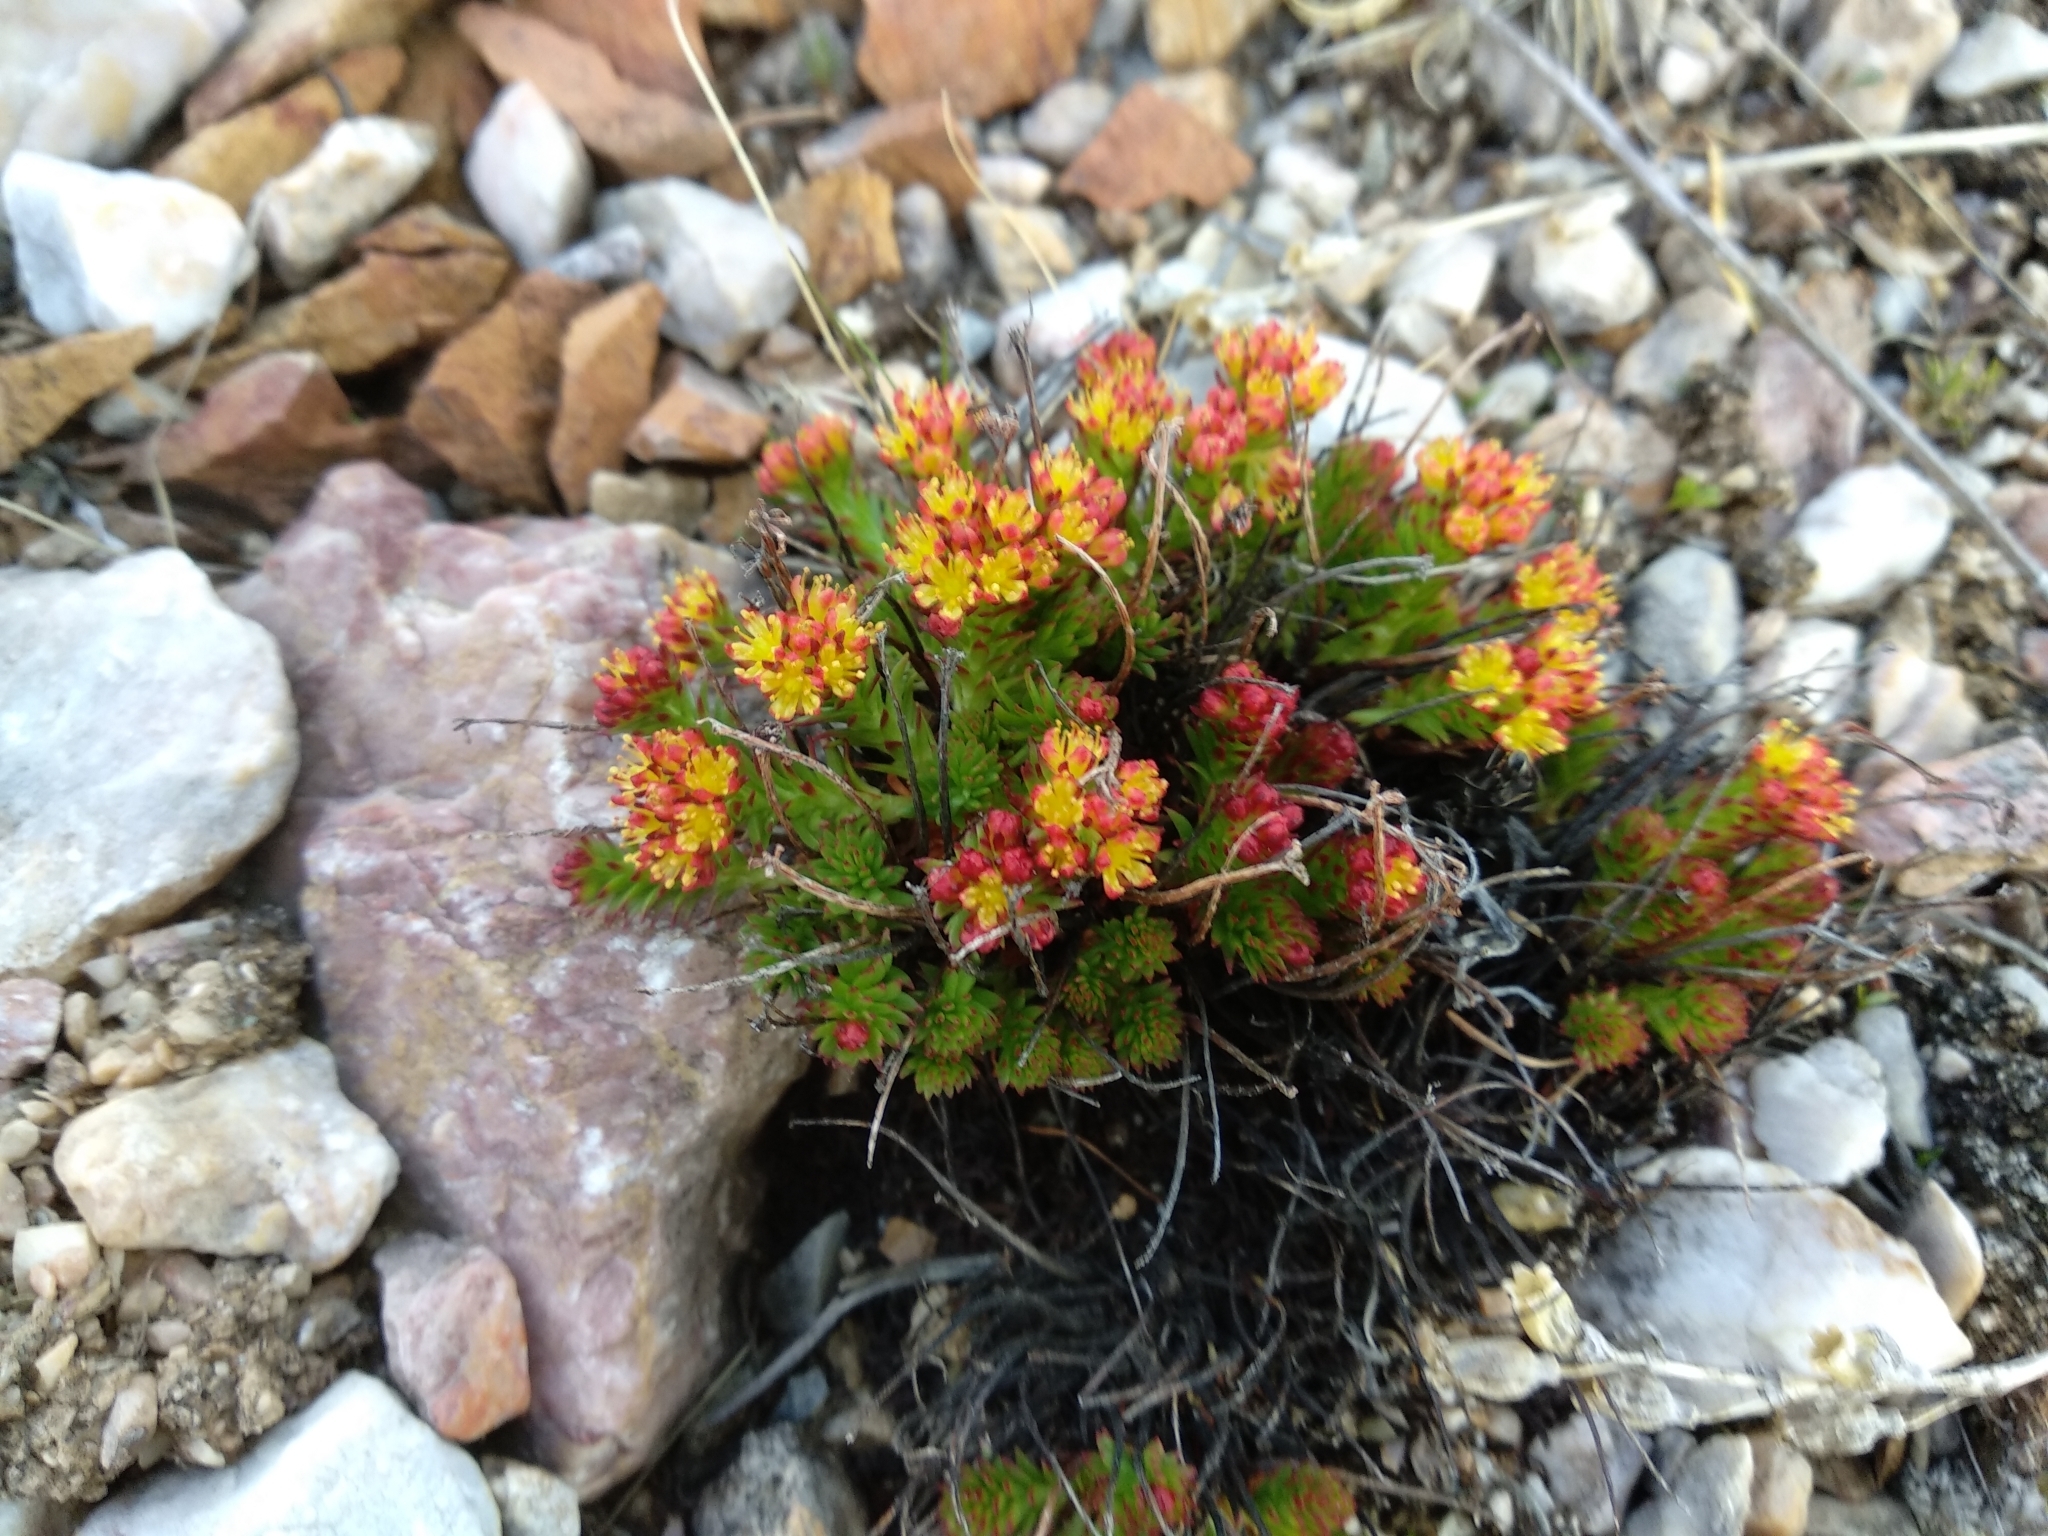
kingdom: Plantae
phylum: Tracheophyta
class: Magnoliopsida
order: Saxifragales
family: Crassulaceae
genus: Rhodiola
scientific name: Rhodiola coccinea
